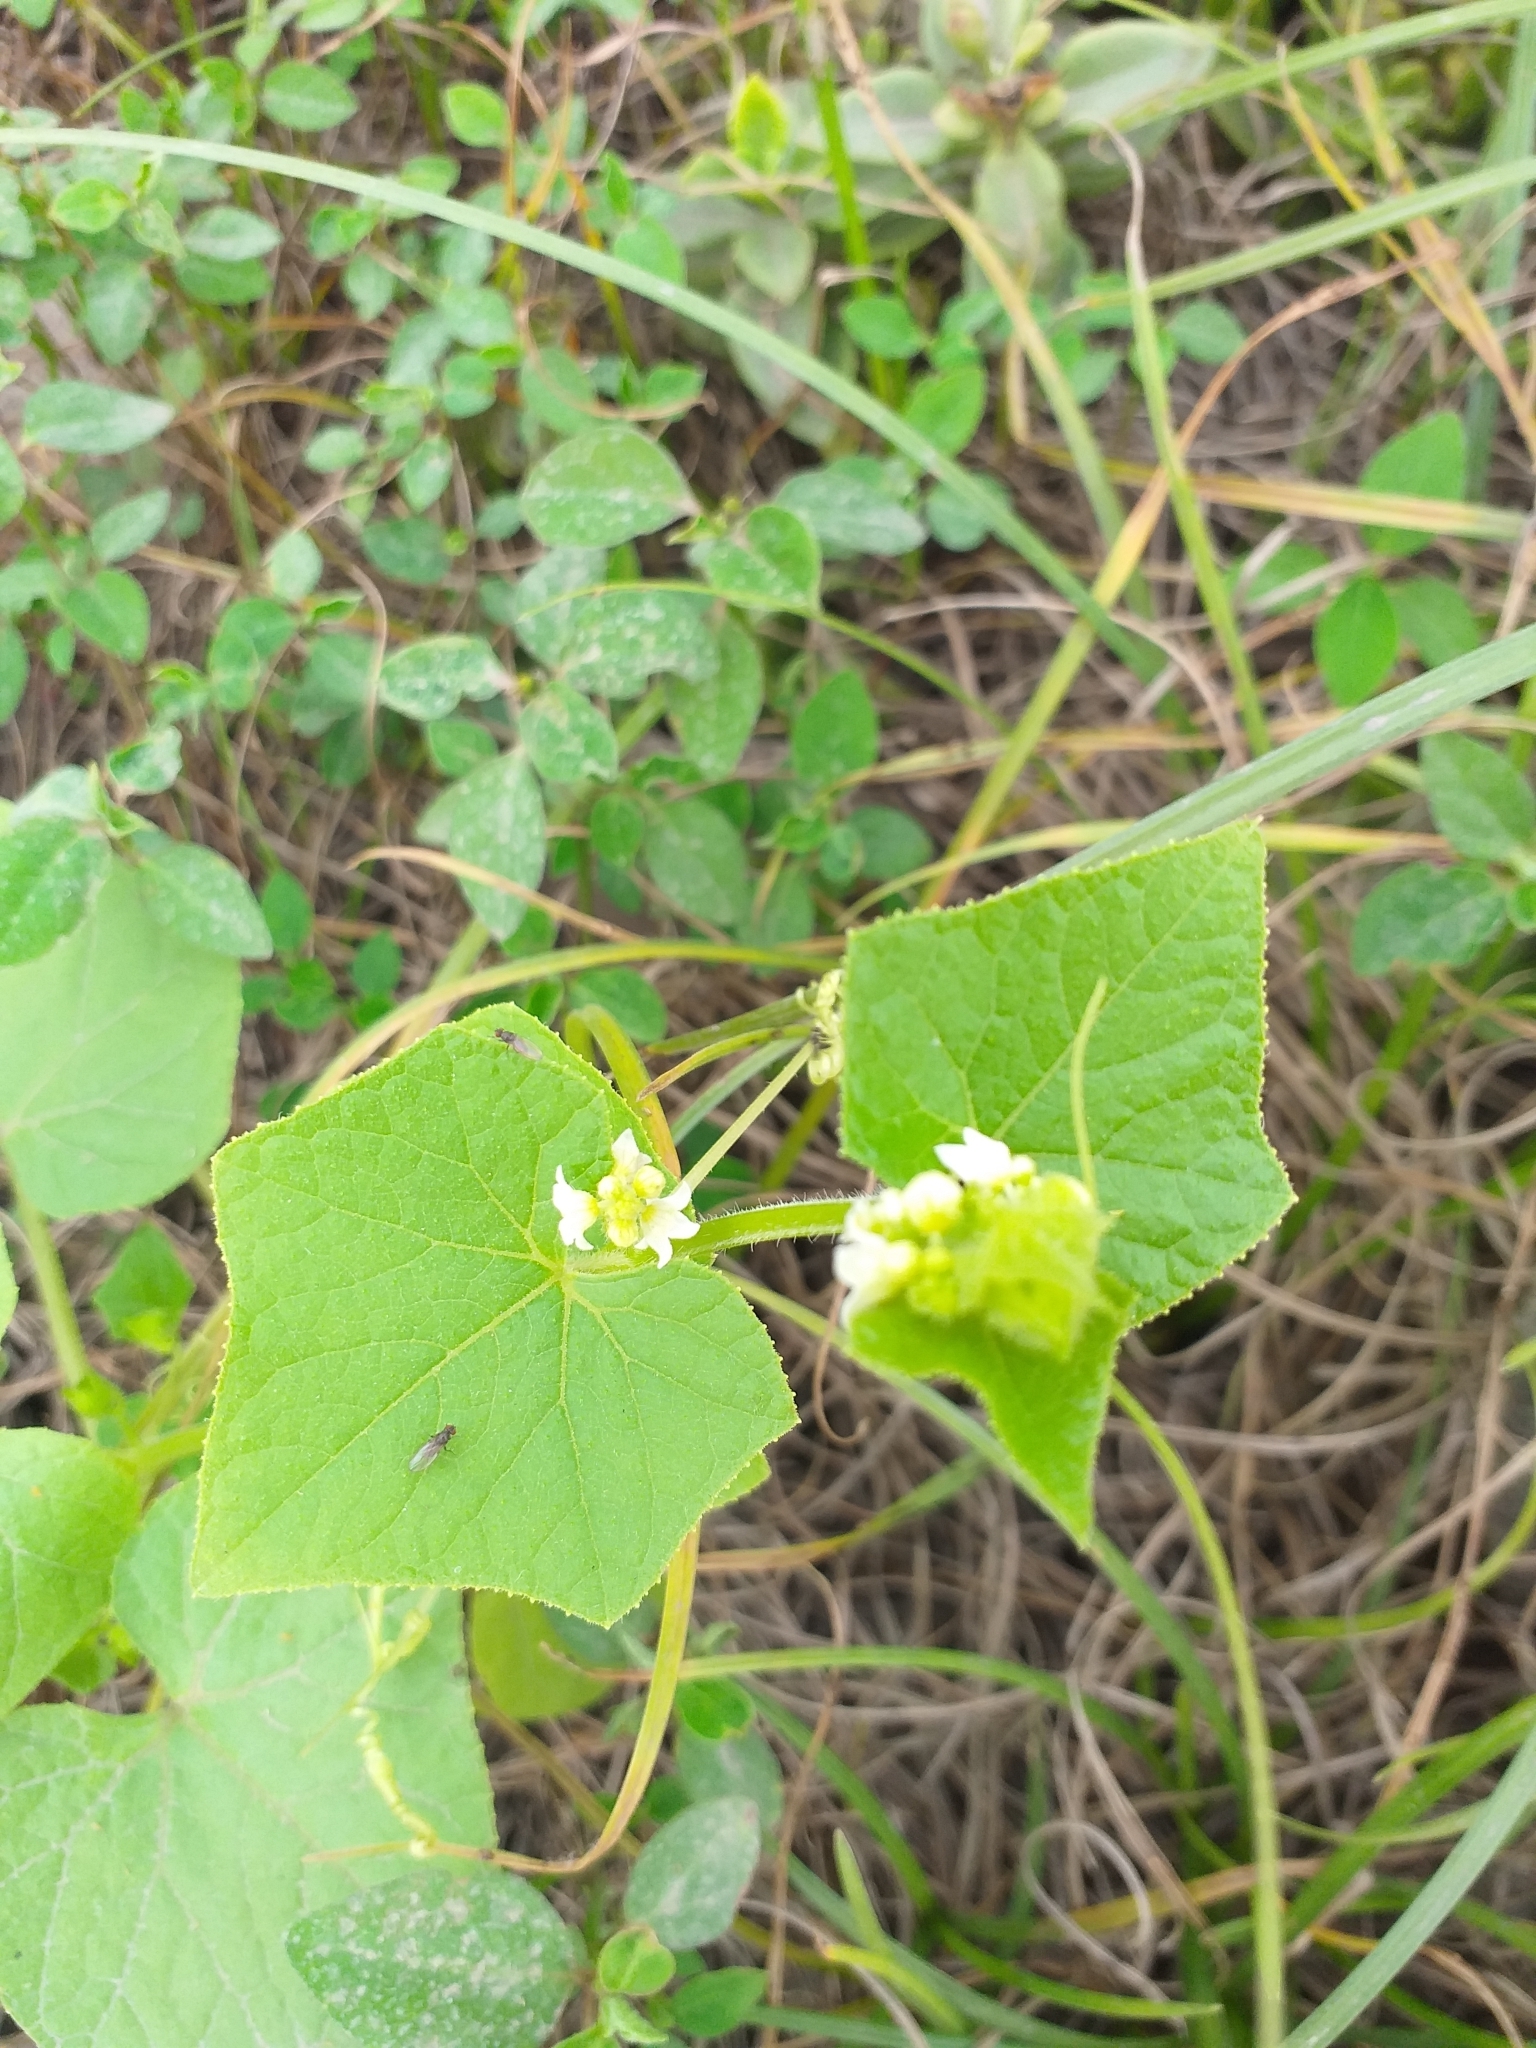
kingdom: Plantae
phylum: Tracheophyta
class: Magnoliopsida
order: Cucurbitales
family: Cucurbitaceae
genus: Sicyos
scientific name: Sicyos baderoa
